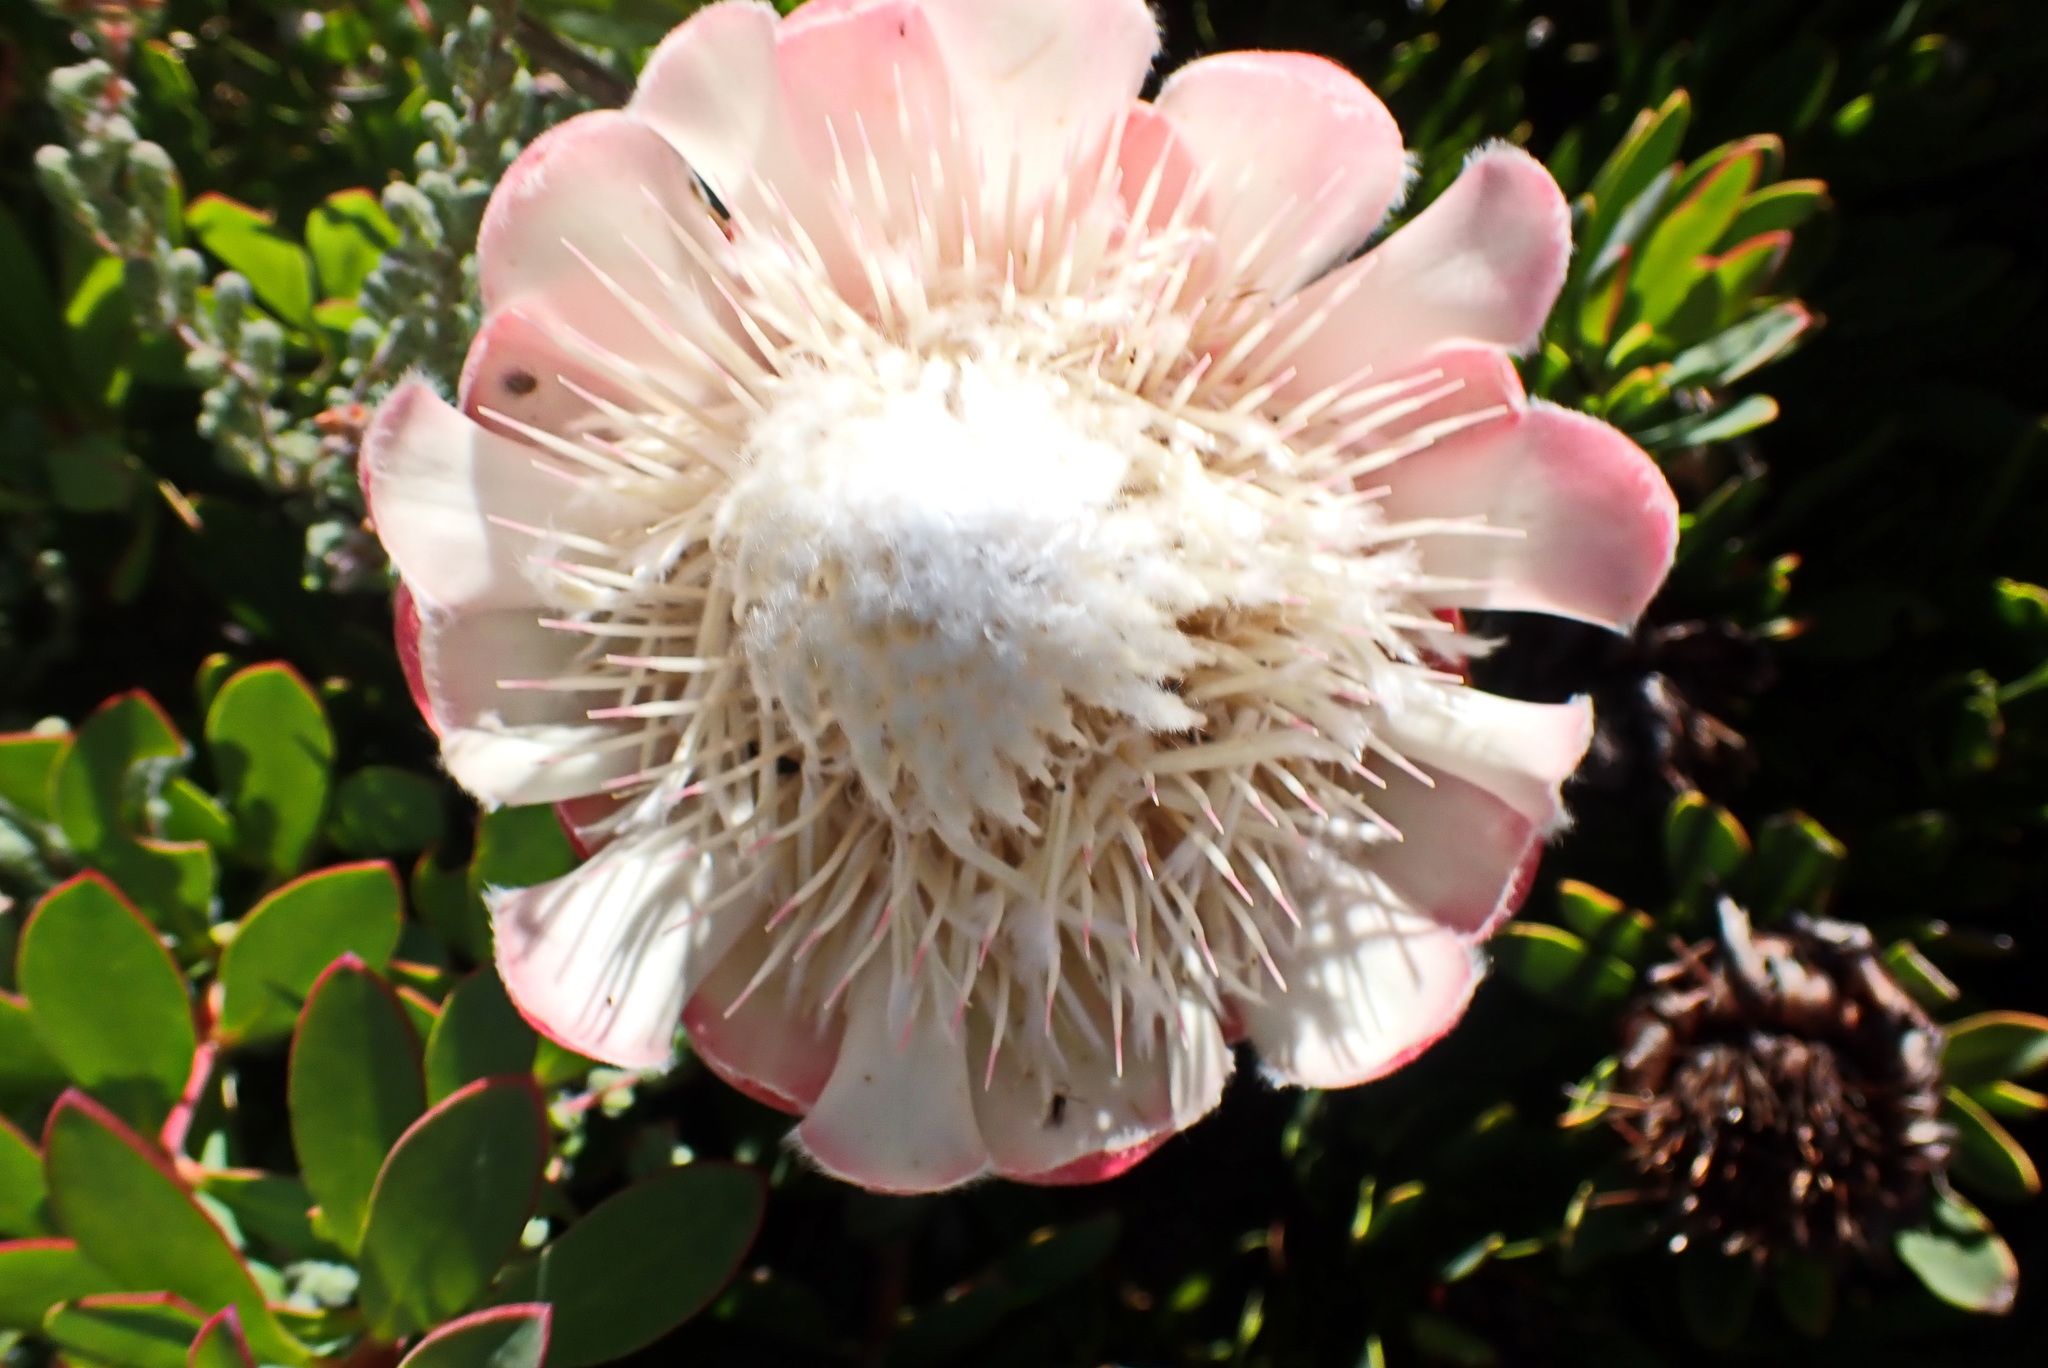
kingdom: Plantae
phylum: Tracheophyta
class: Magnoliopsida
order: Proteales
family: Proteaceae
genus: Protea
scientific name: Protea venusta
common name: Cascade sugarbush
